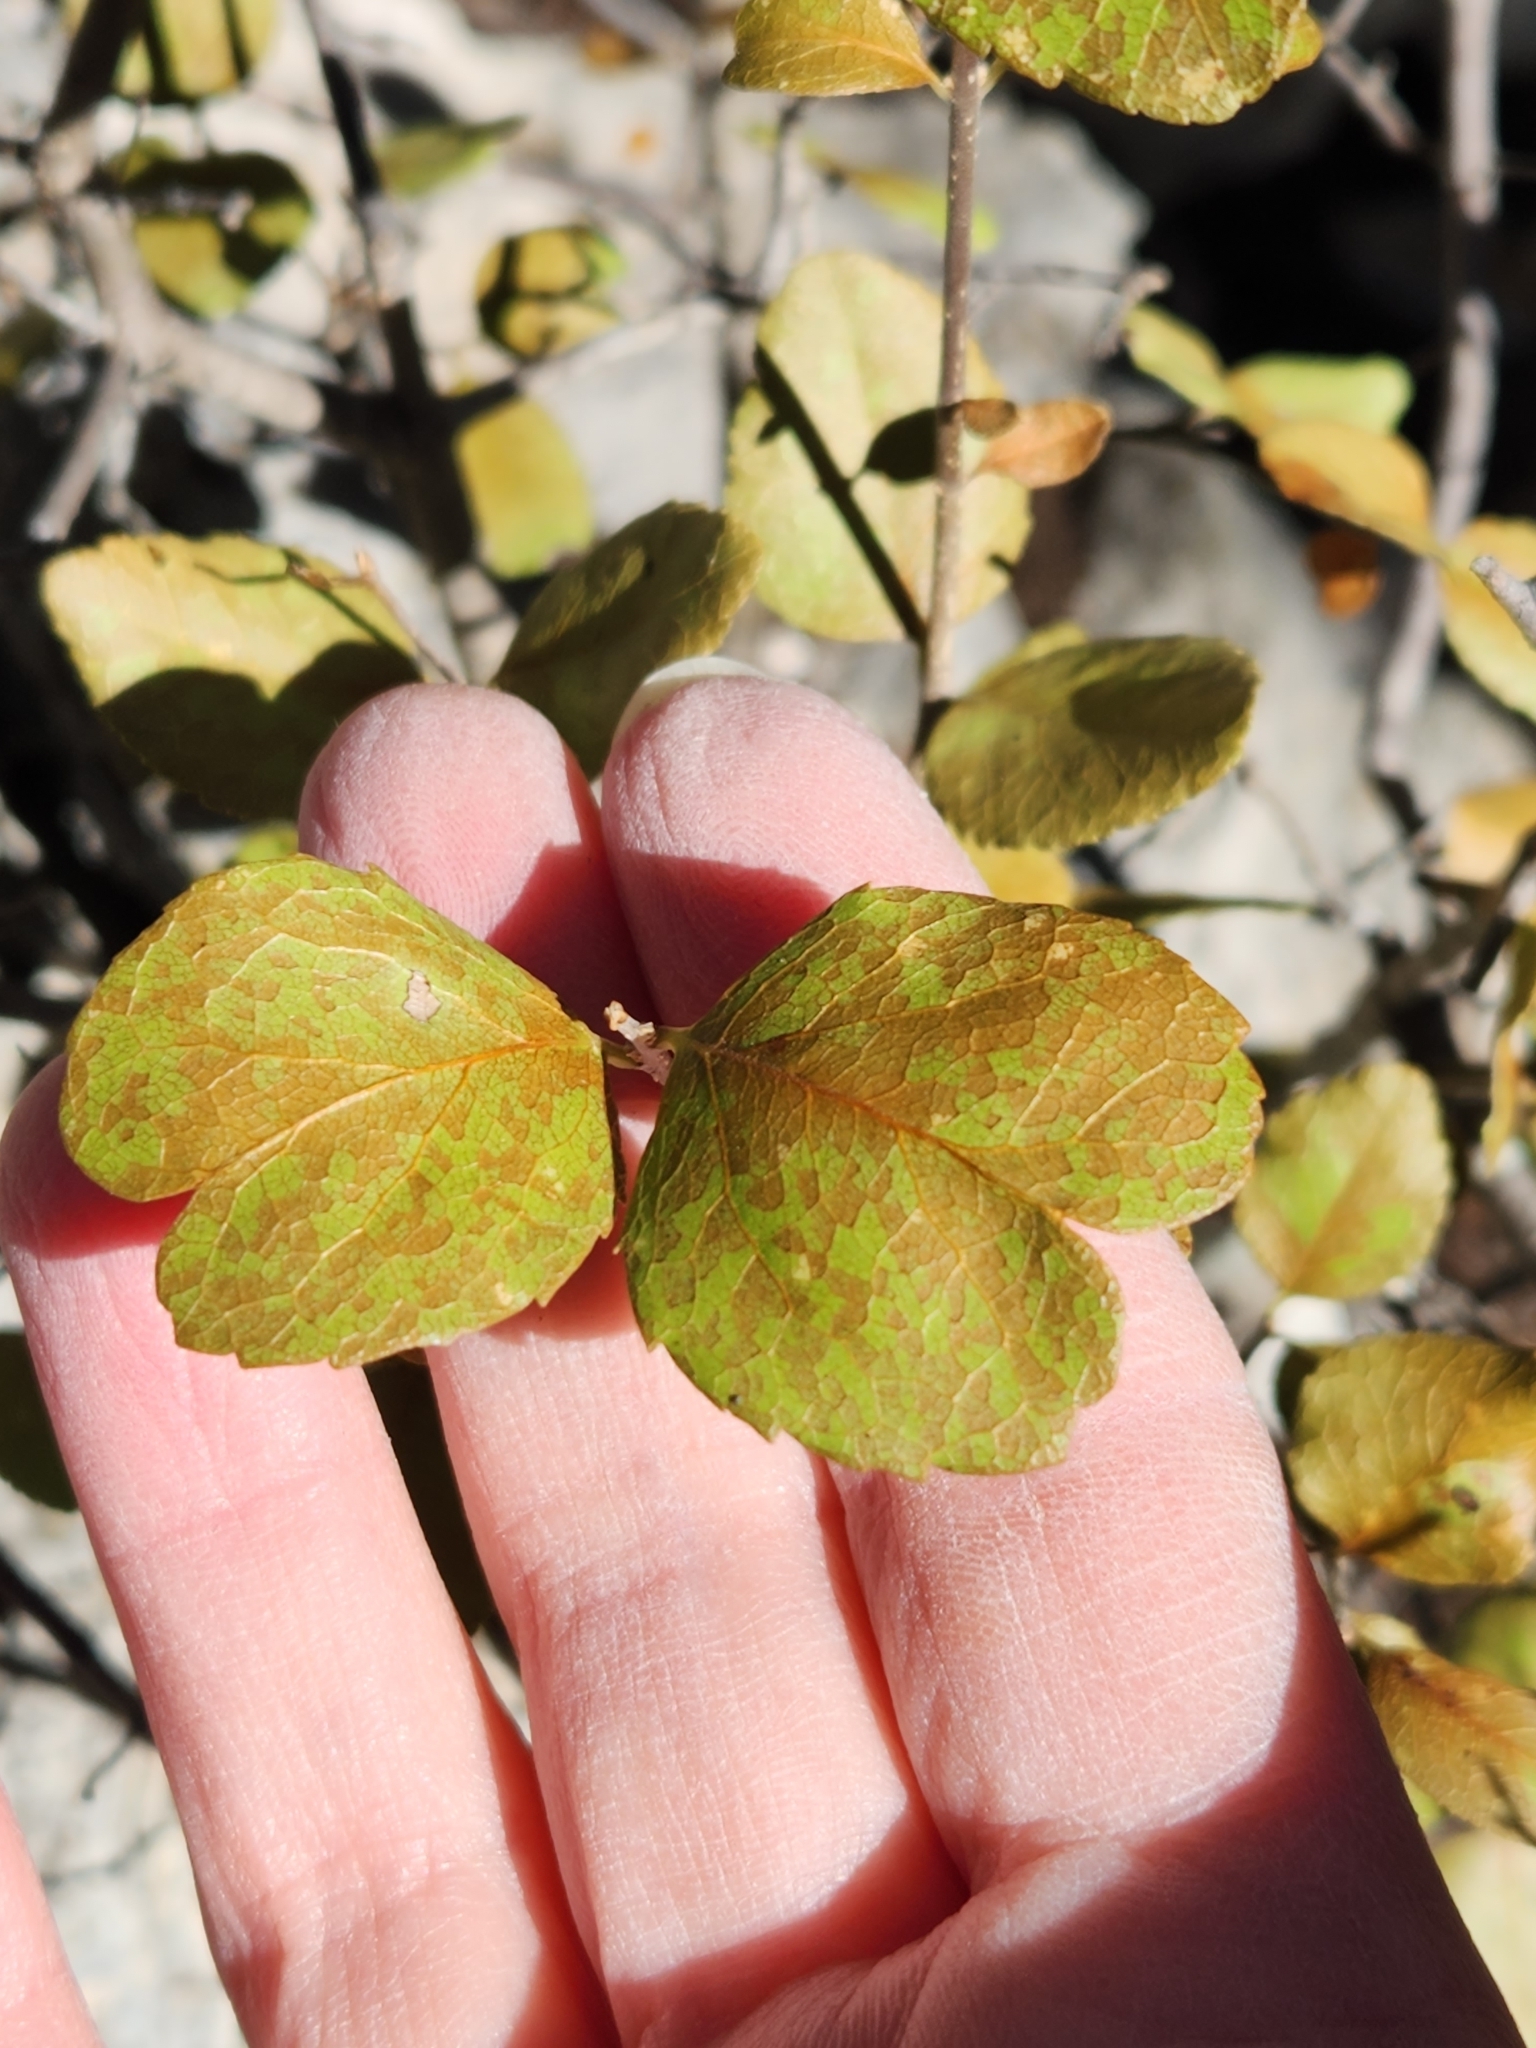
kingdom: Plantae
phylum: Tracheophyta
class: Magnoliopsida
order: Lamiales
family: Oleaceae
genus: Forestiera
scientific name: Forestiera reticulata
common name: Netleaf swamp-privet
